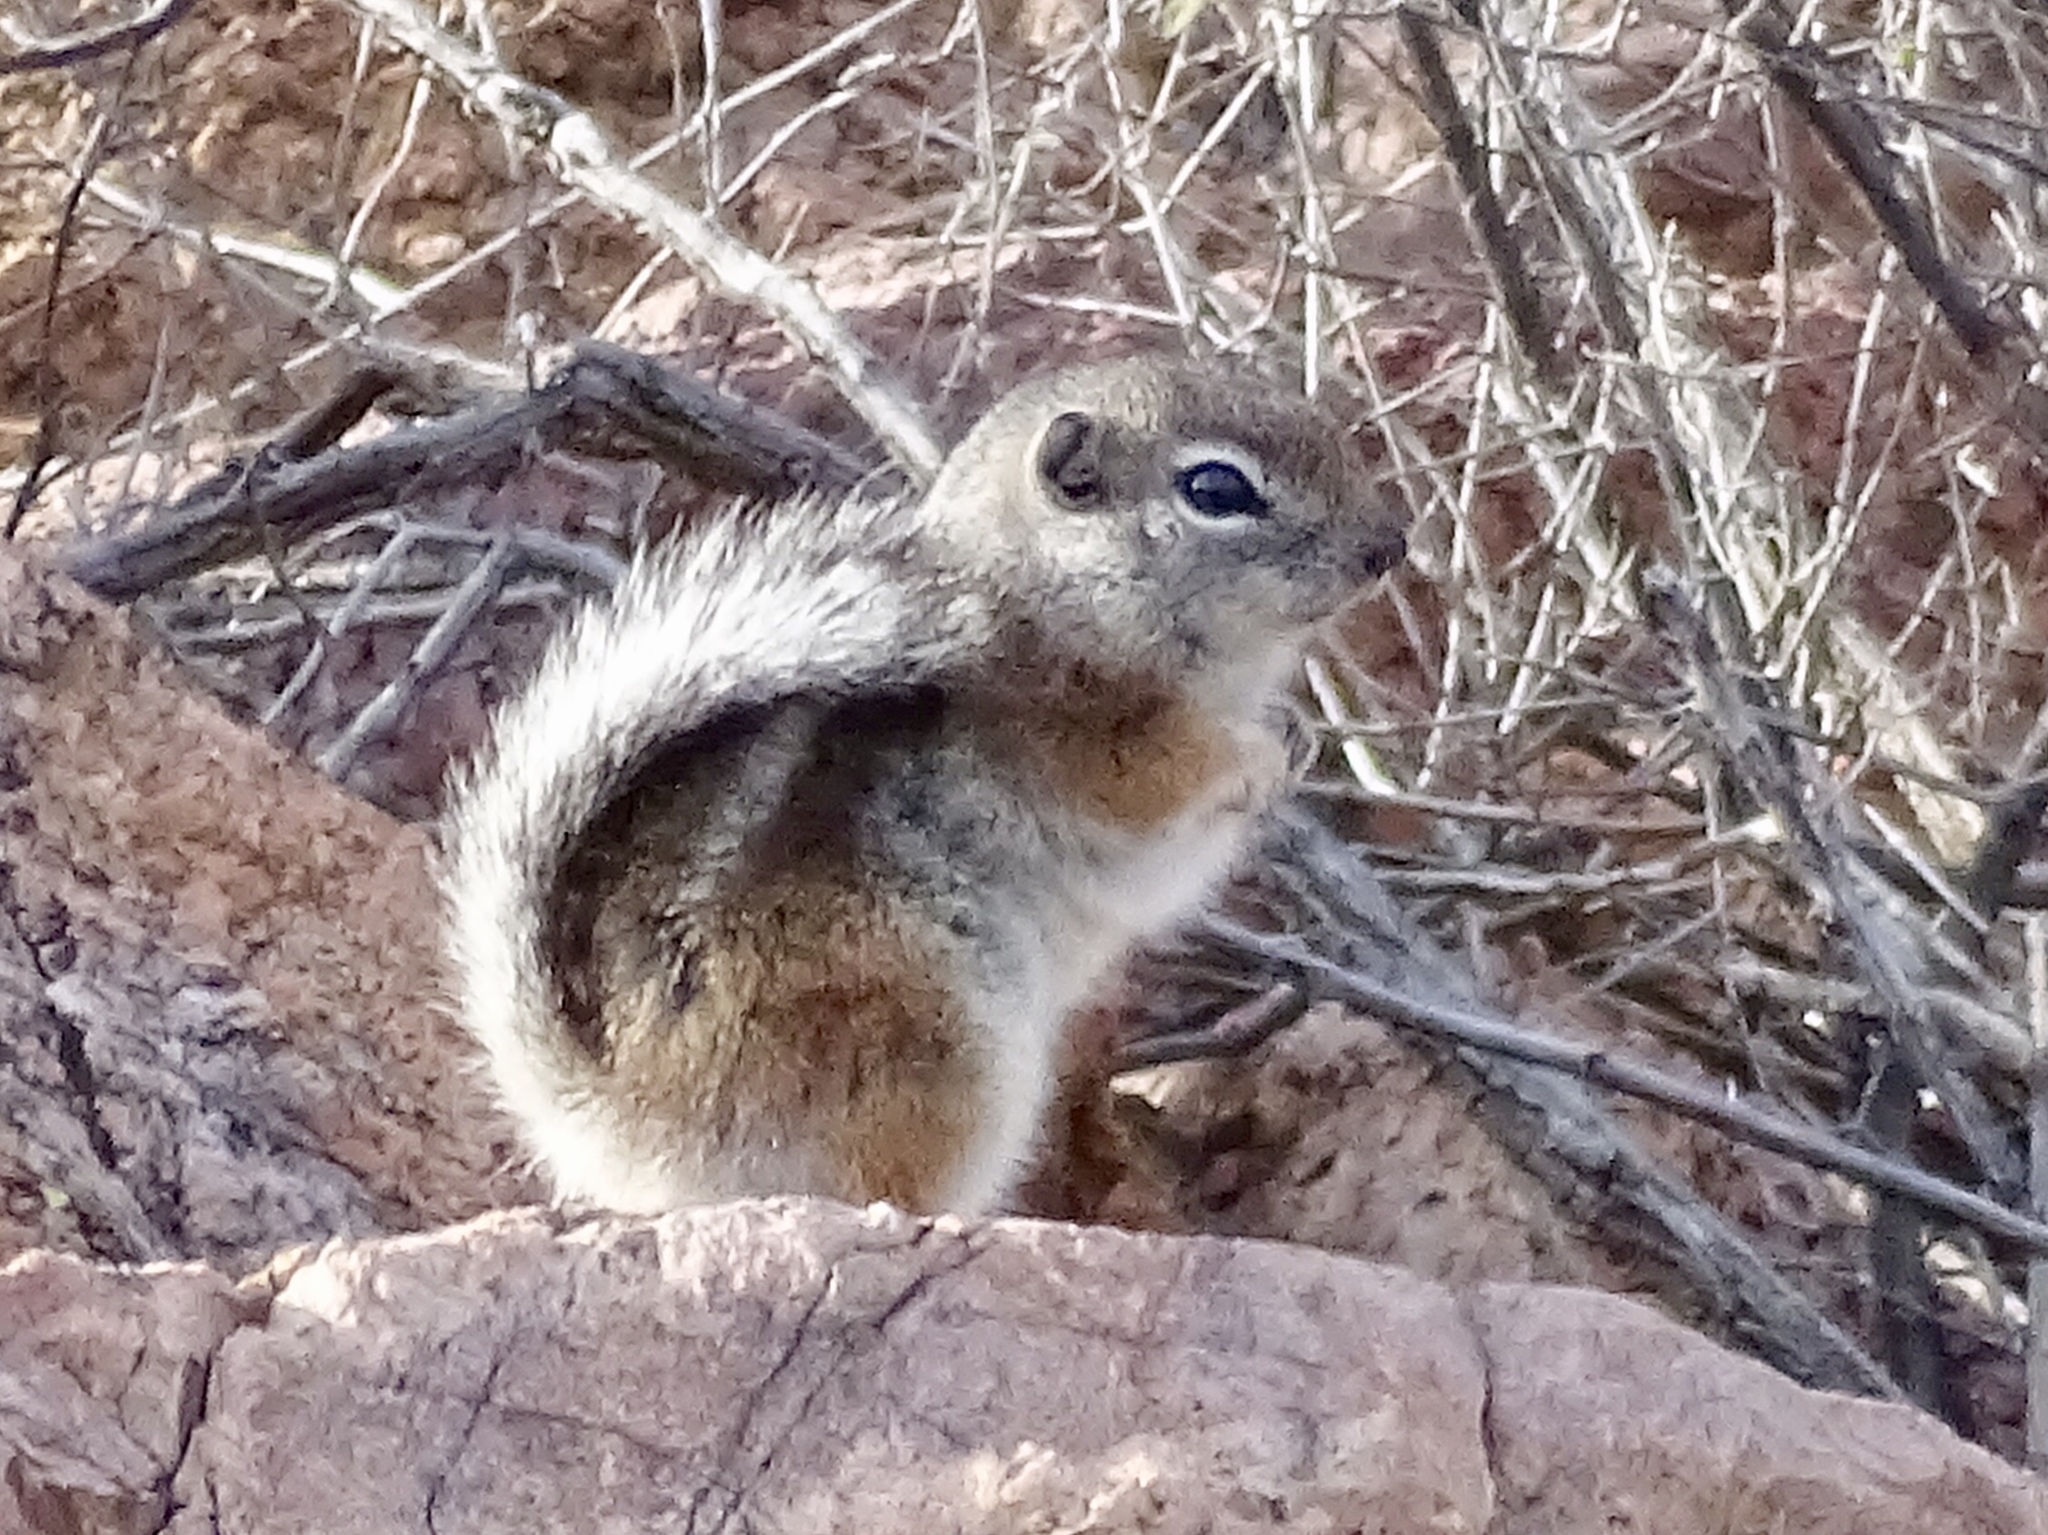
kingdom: Animalia
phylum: Chordata
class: Mammalia
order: Rodentia
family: Sciuridae
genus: Ammospermophilus
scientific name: Ammospermophilus interpres
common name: Texas antelope squirrel
